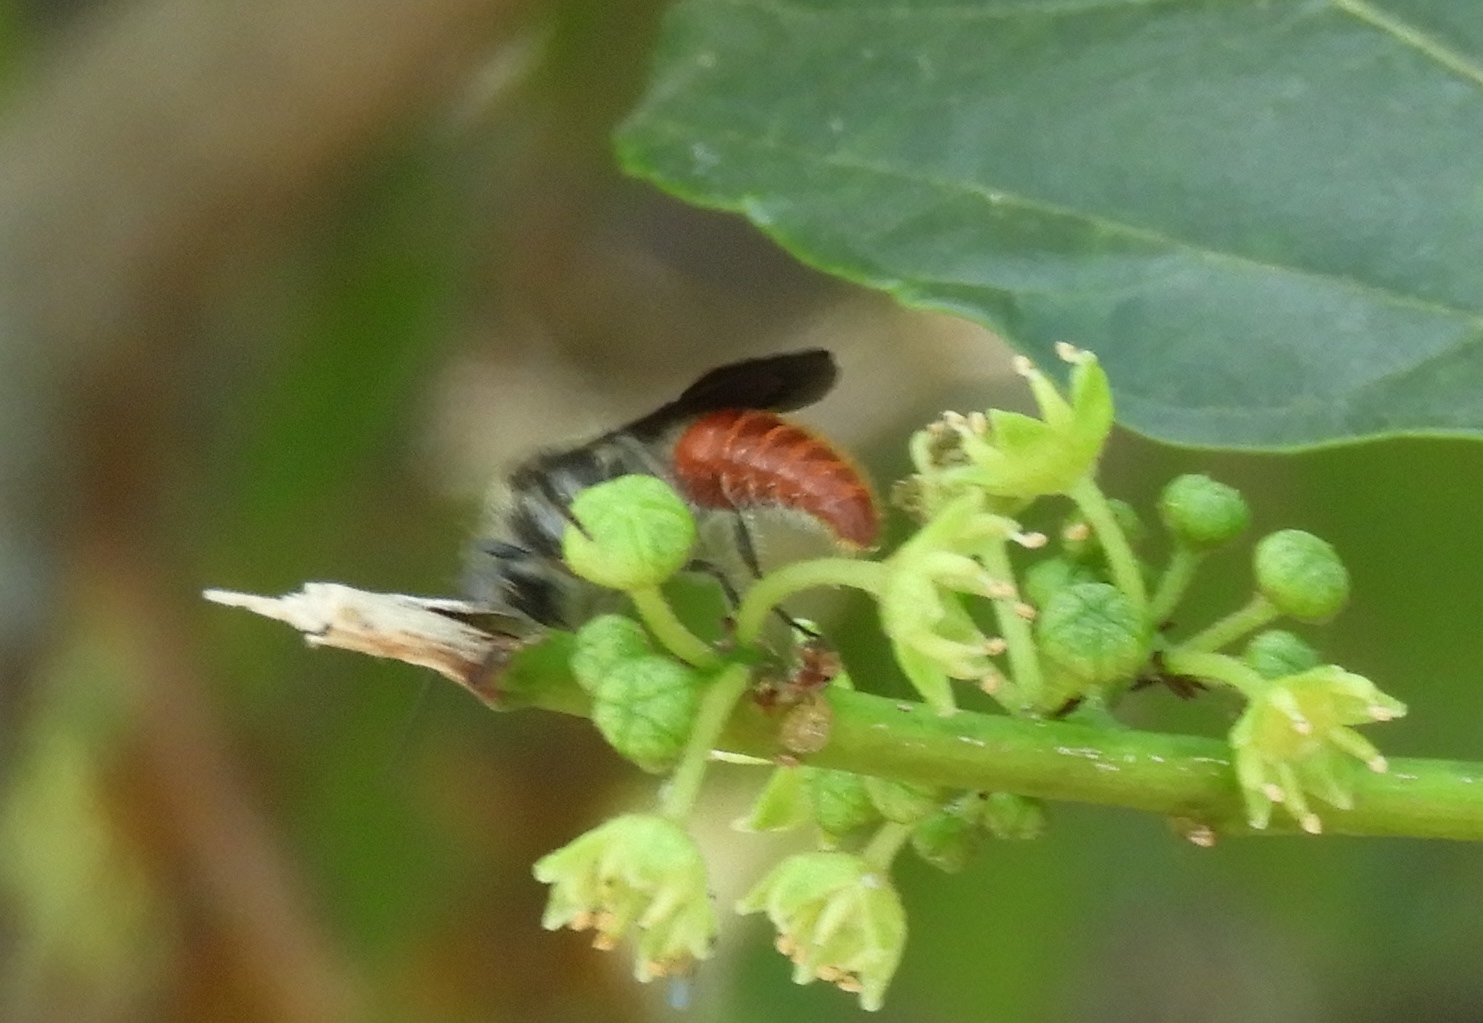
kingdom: Animalia
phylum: Arthropoda
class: Insecta
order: Hymenoptera
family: Mutillidae
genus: Timulla
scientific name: Timulla
